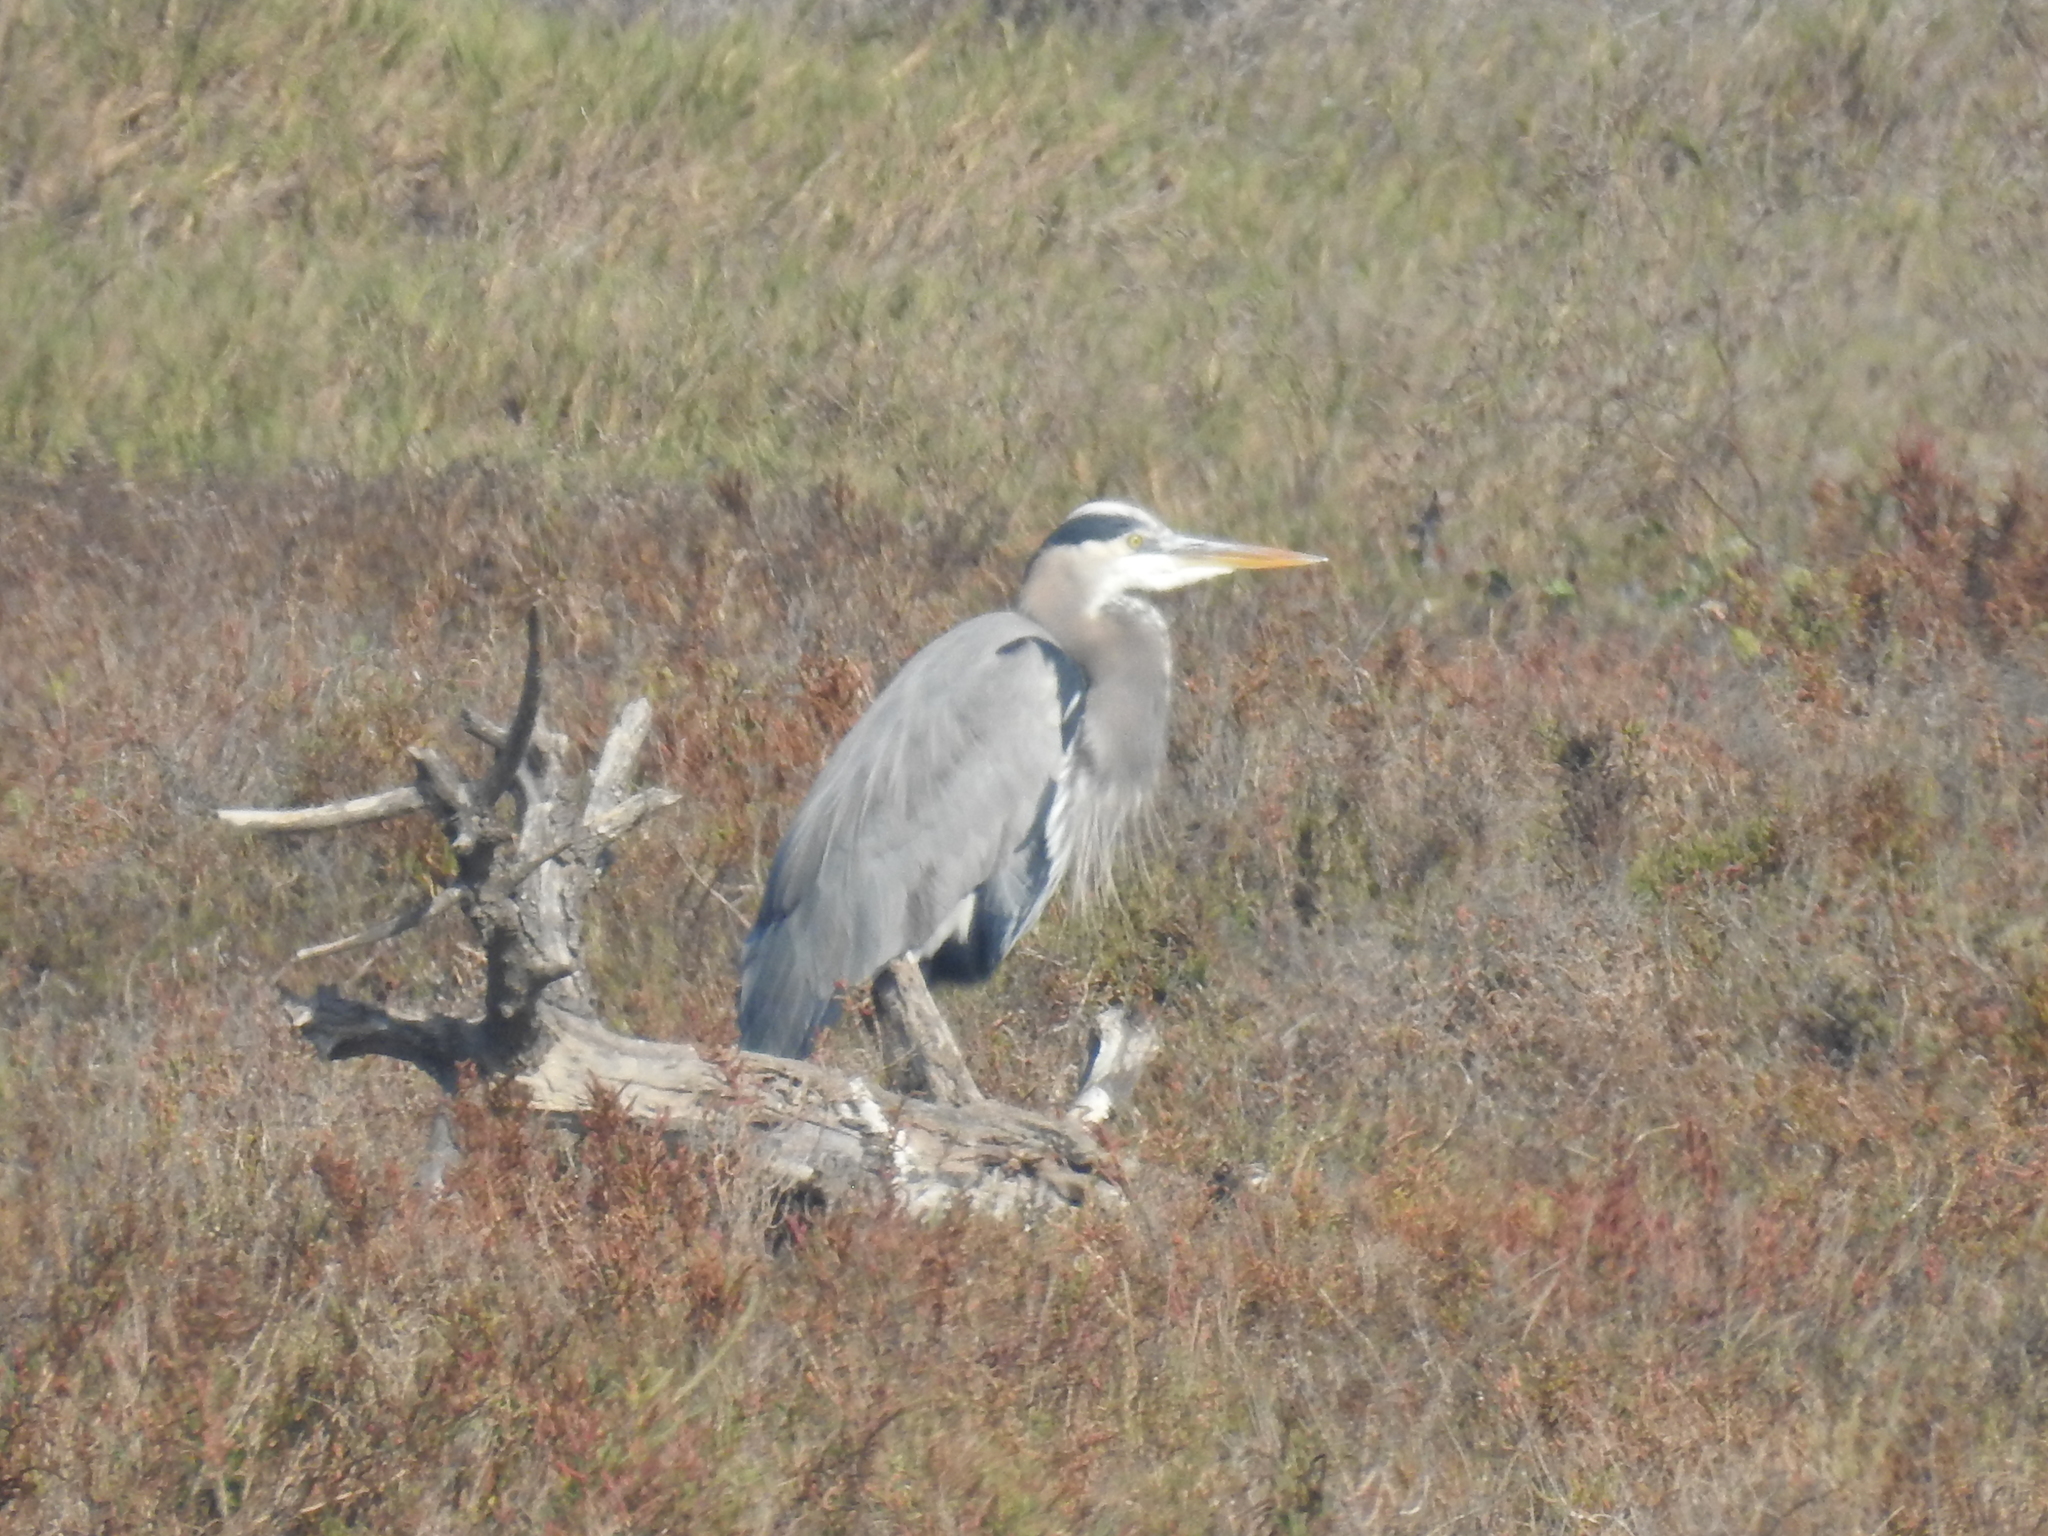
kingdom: Animalia
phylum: Chordata
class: Aves
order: Pelecaniformes
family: Ardeidae
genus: Ardea
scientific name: Ardea herodias
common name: Great blue heron
